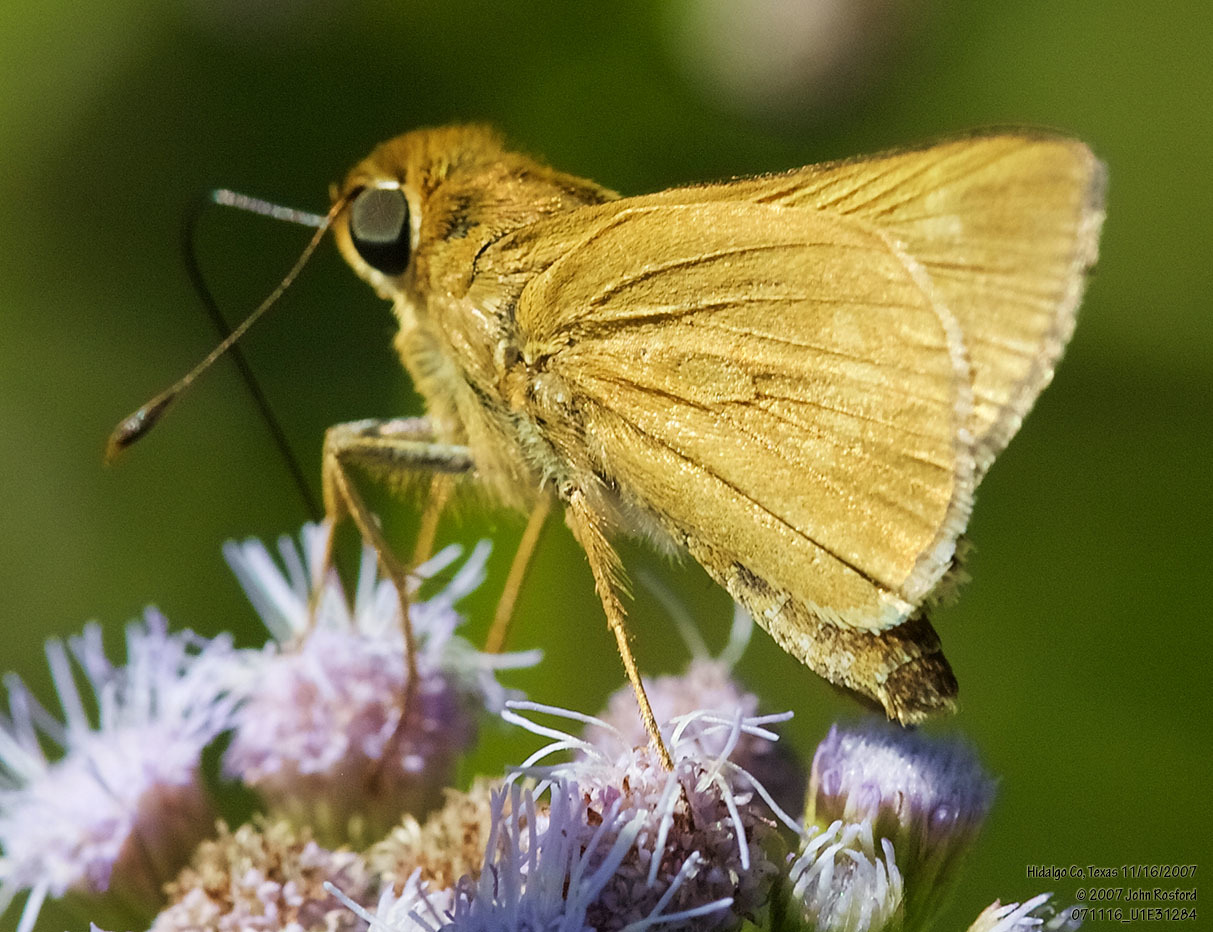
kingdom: Animalia
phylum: Arthropoda
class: Insecta
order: Lepidoptera
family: Hesperiidae
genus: Mellana
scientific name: Mellana eulogius
